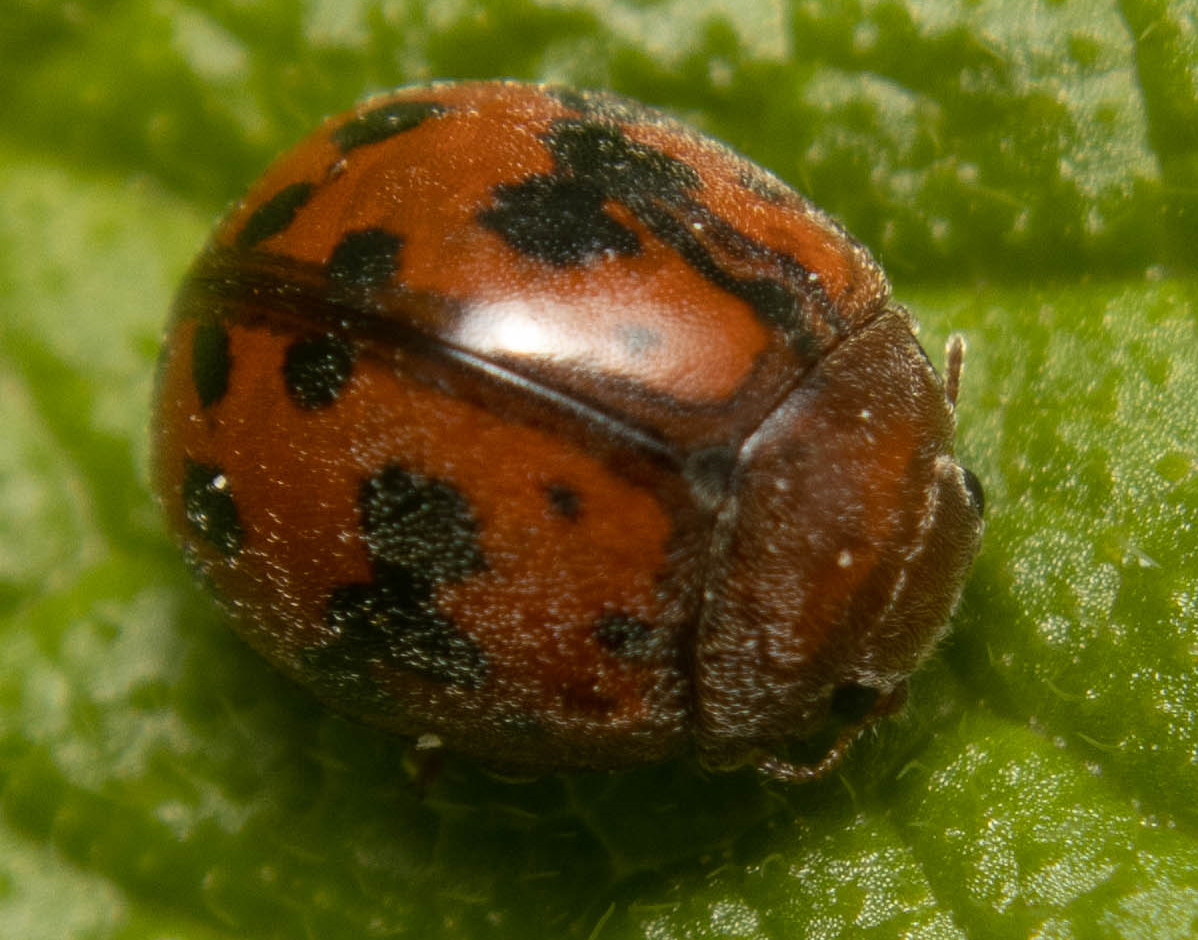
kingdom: Animalia
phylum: Arthropoda
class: Insecta
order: Coleoptera
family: Coccinellidae
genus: Subcoccinella
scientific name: Subcoccinella vigintiquatuorpunctata
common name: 24-spot ladybird
